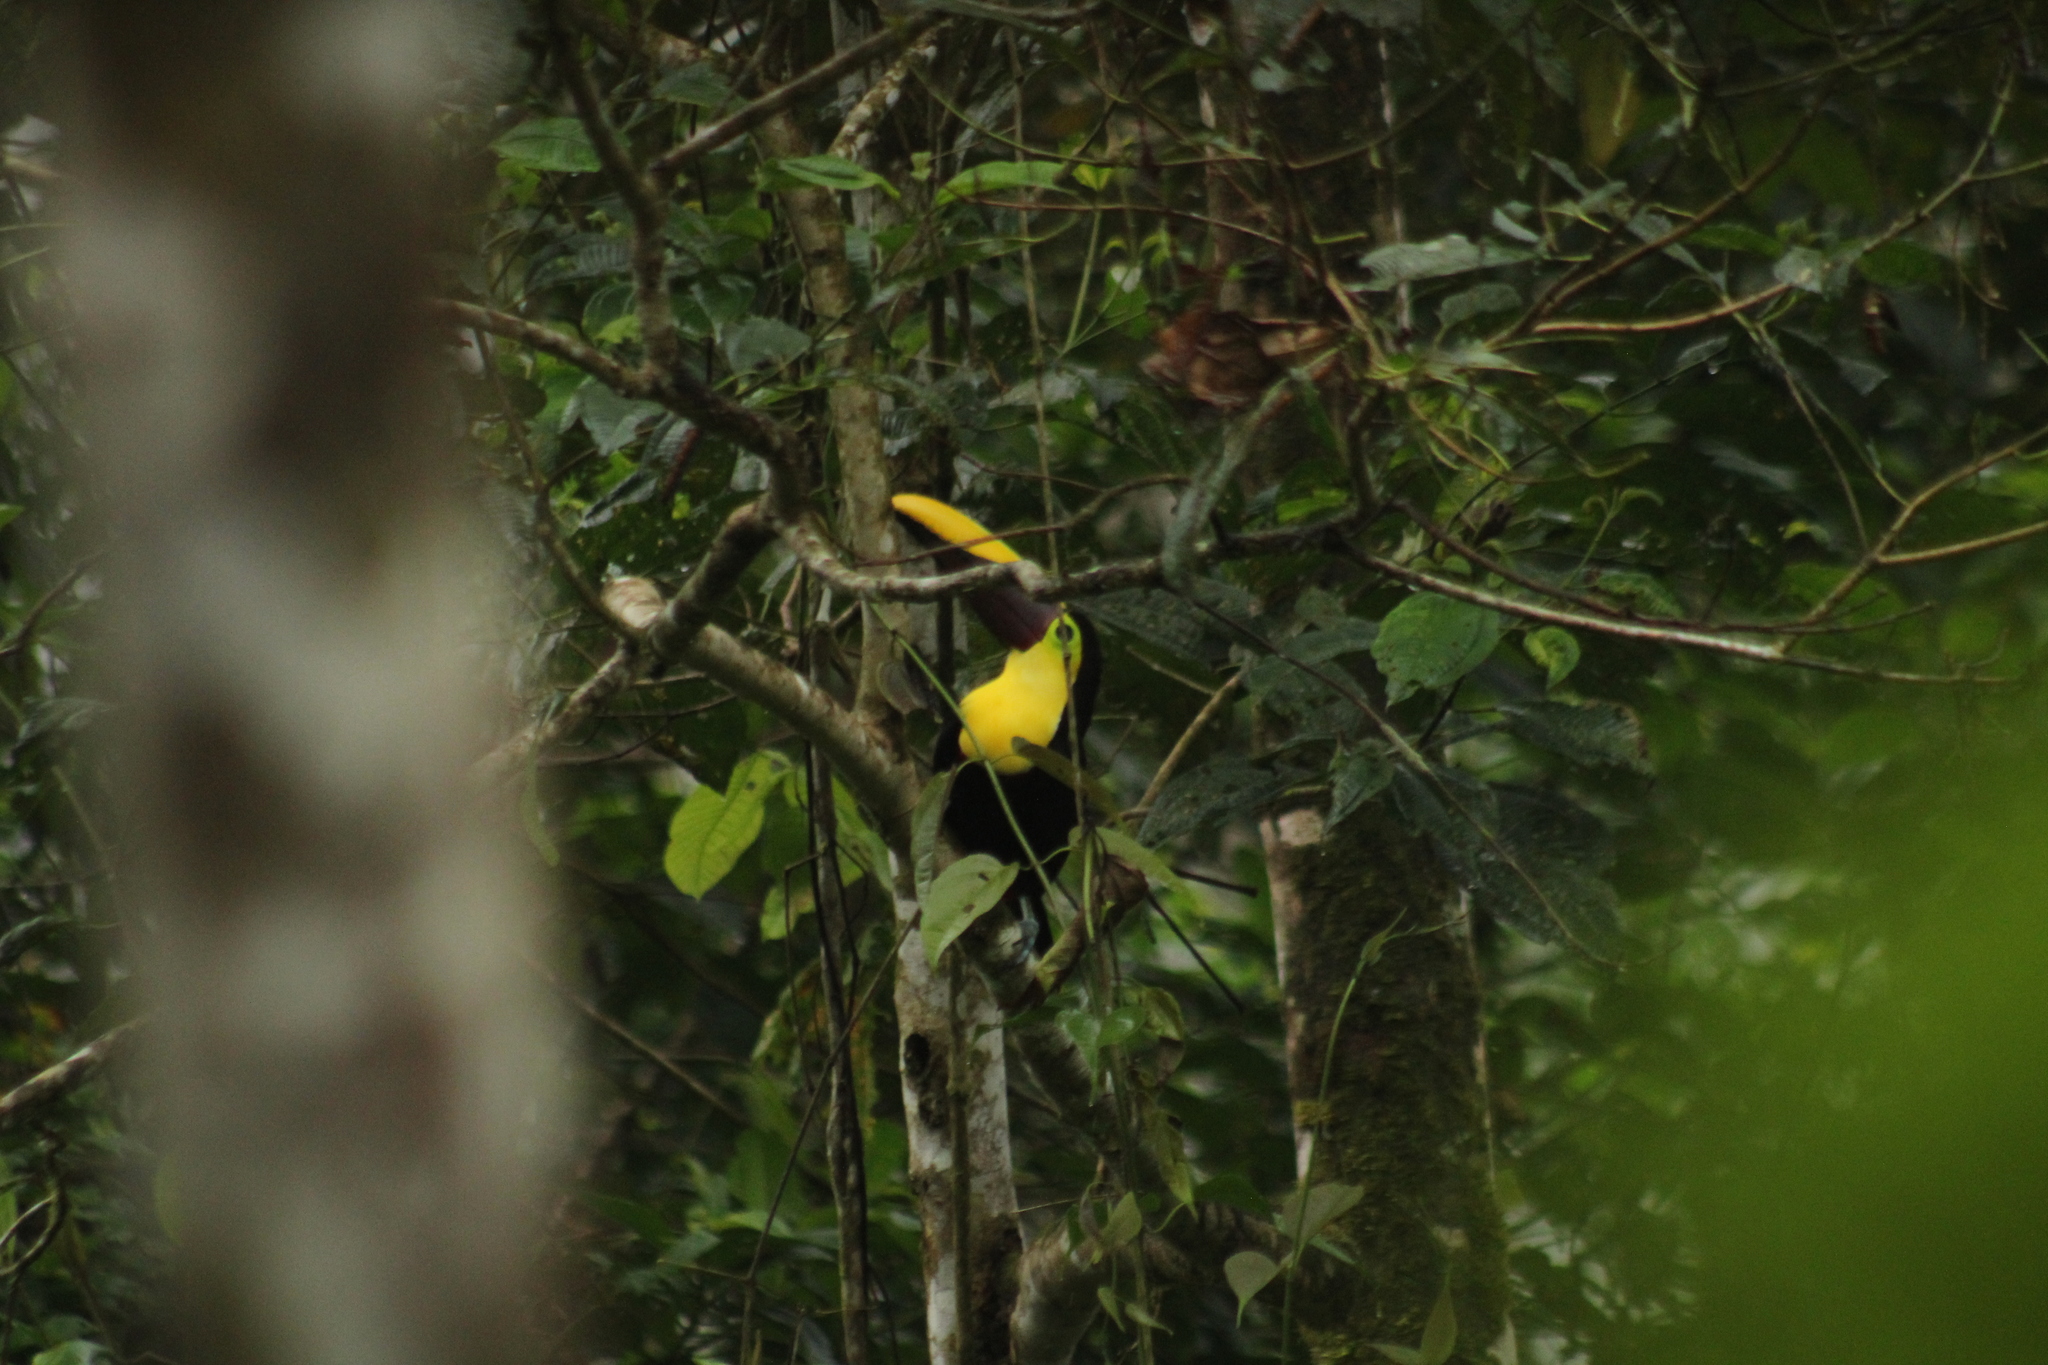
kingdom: Animalia
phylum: Chordata
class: Aves
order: Piciformes
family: Ramphastidae
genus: Ramphastos
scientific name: Ramphastos ambiguus
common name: Yellow-throated toucan
